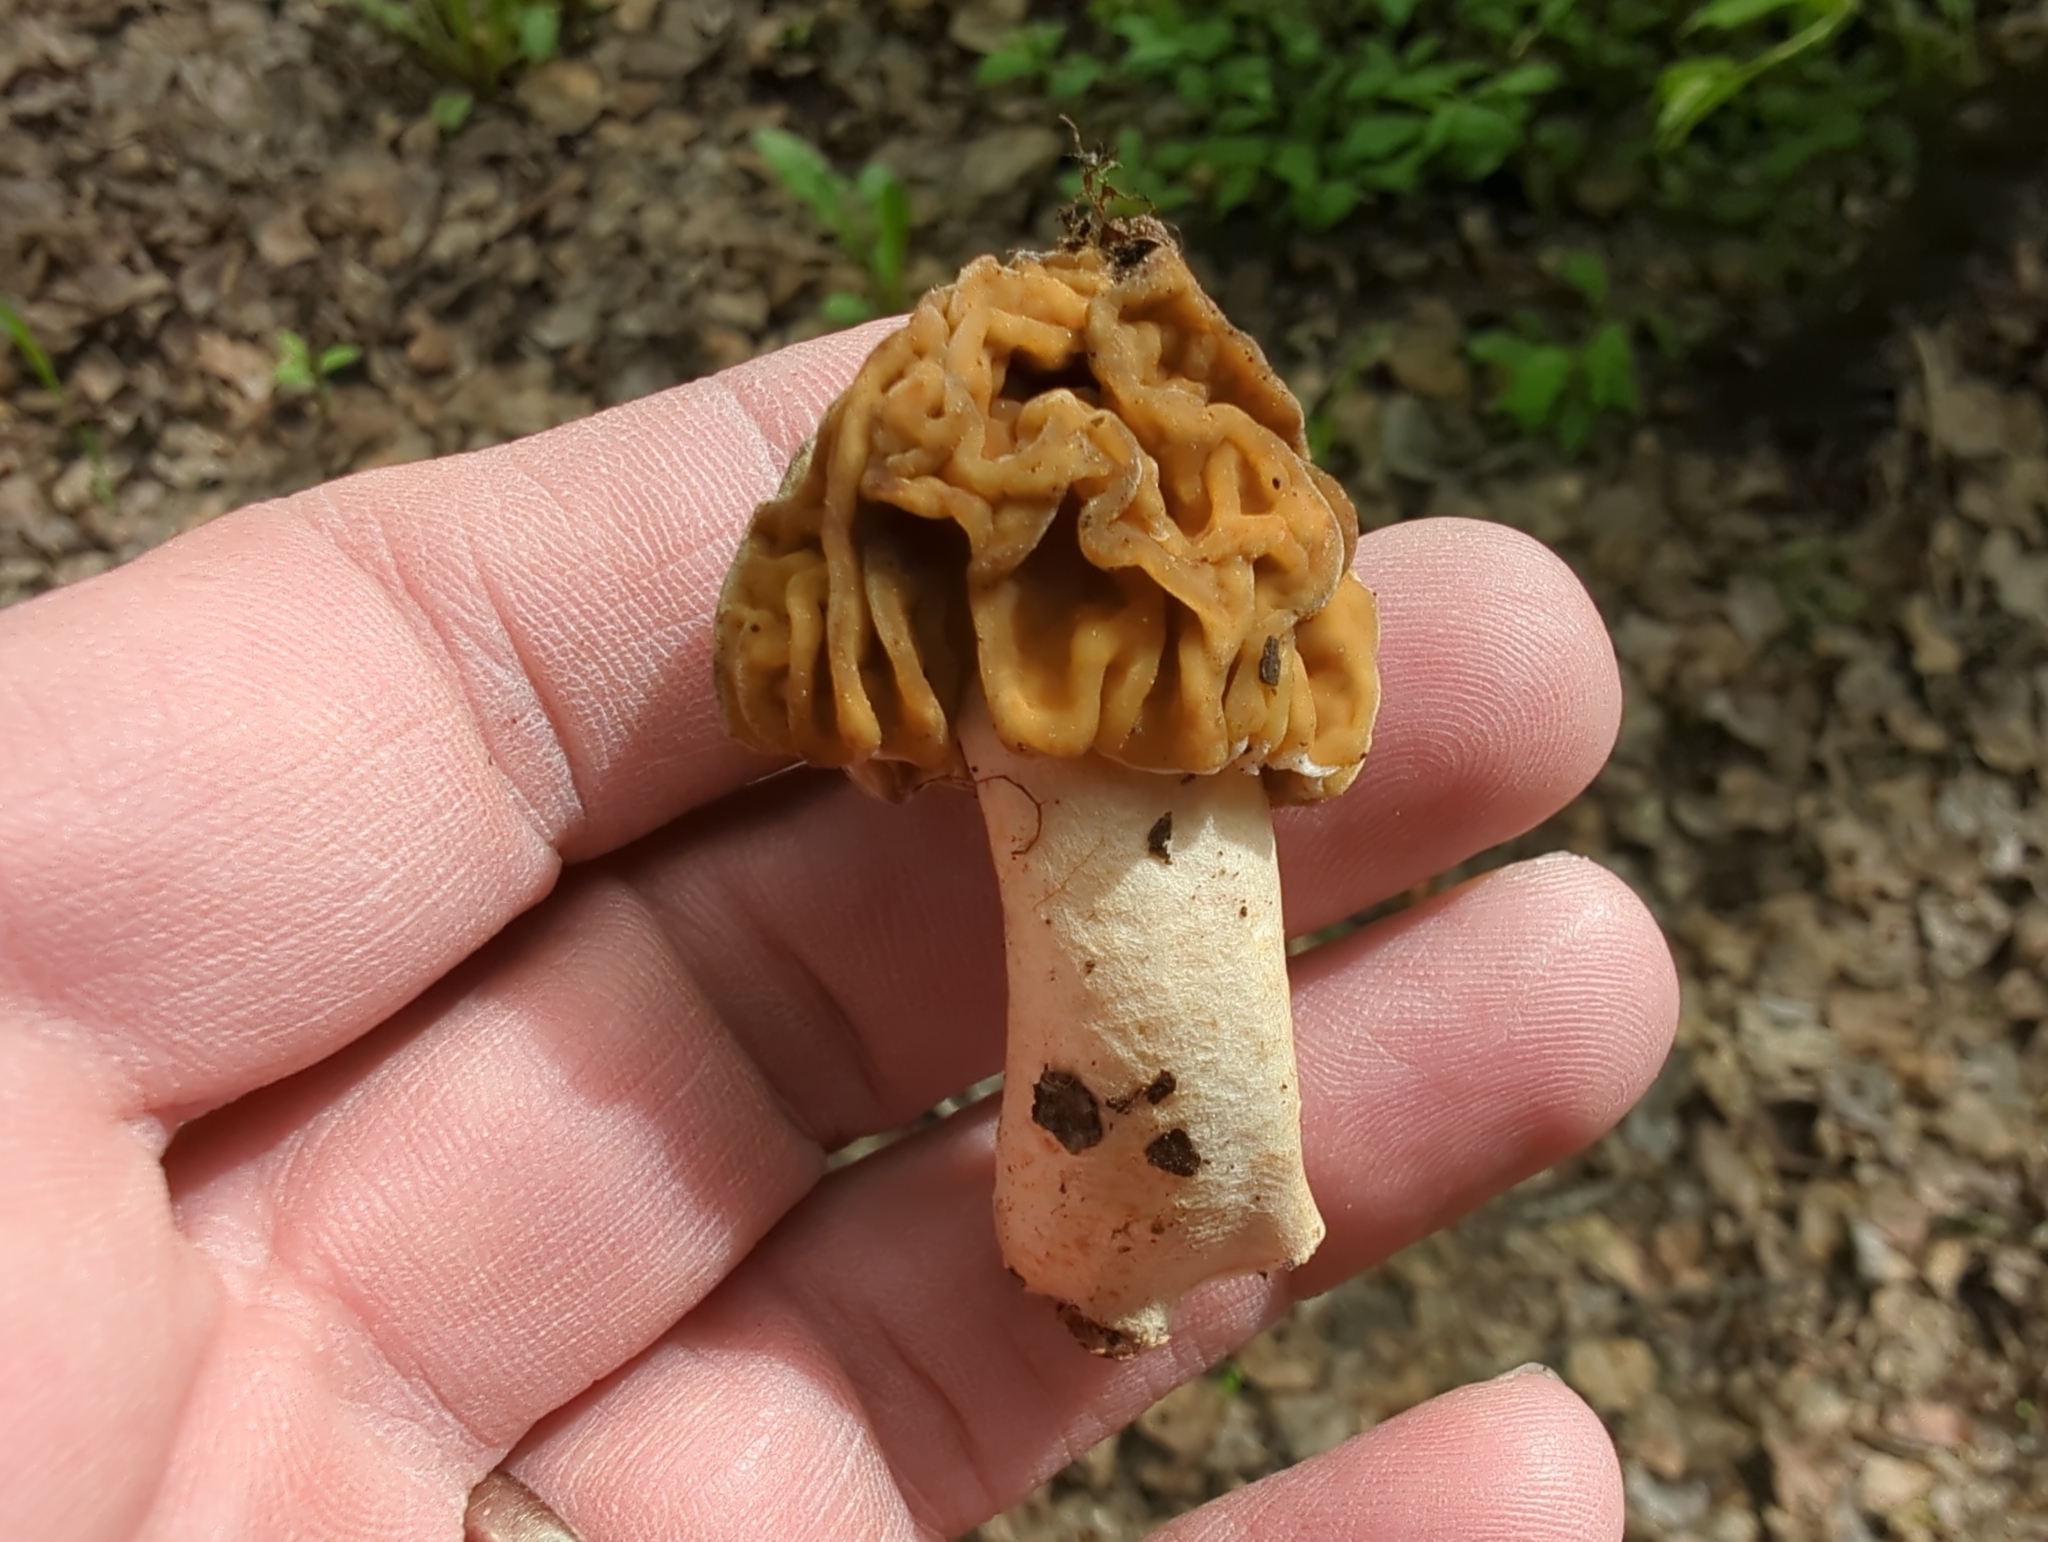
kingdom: Fungi
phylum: Ascomycota
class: Pezizomycetes
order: Pezizales
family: Morchellaceae
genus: Verpa
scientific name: Verpa bohemica
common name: Wrinkled thimble morel
